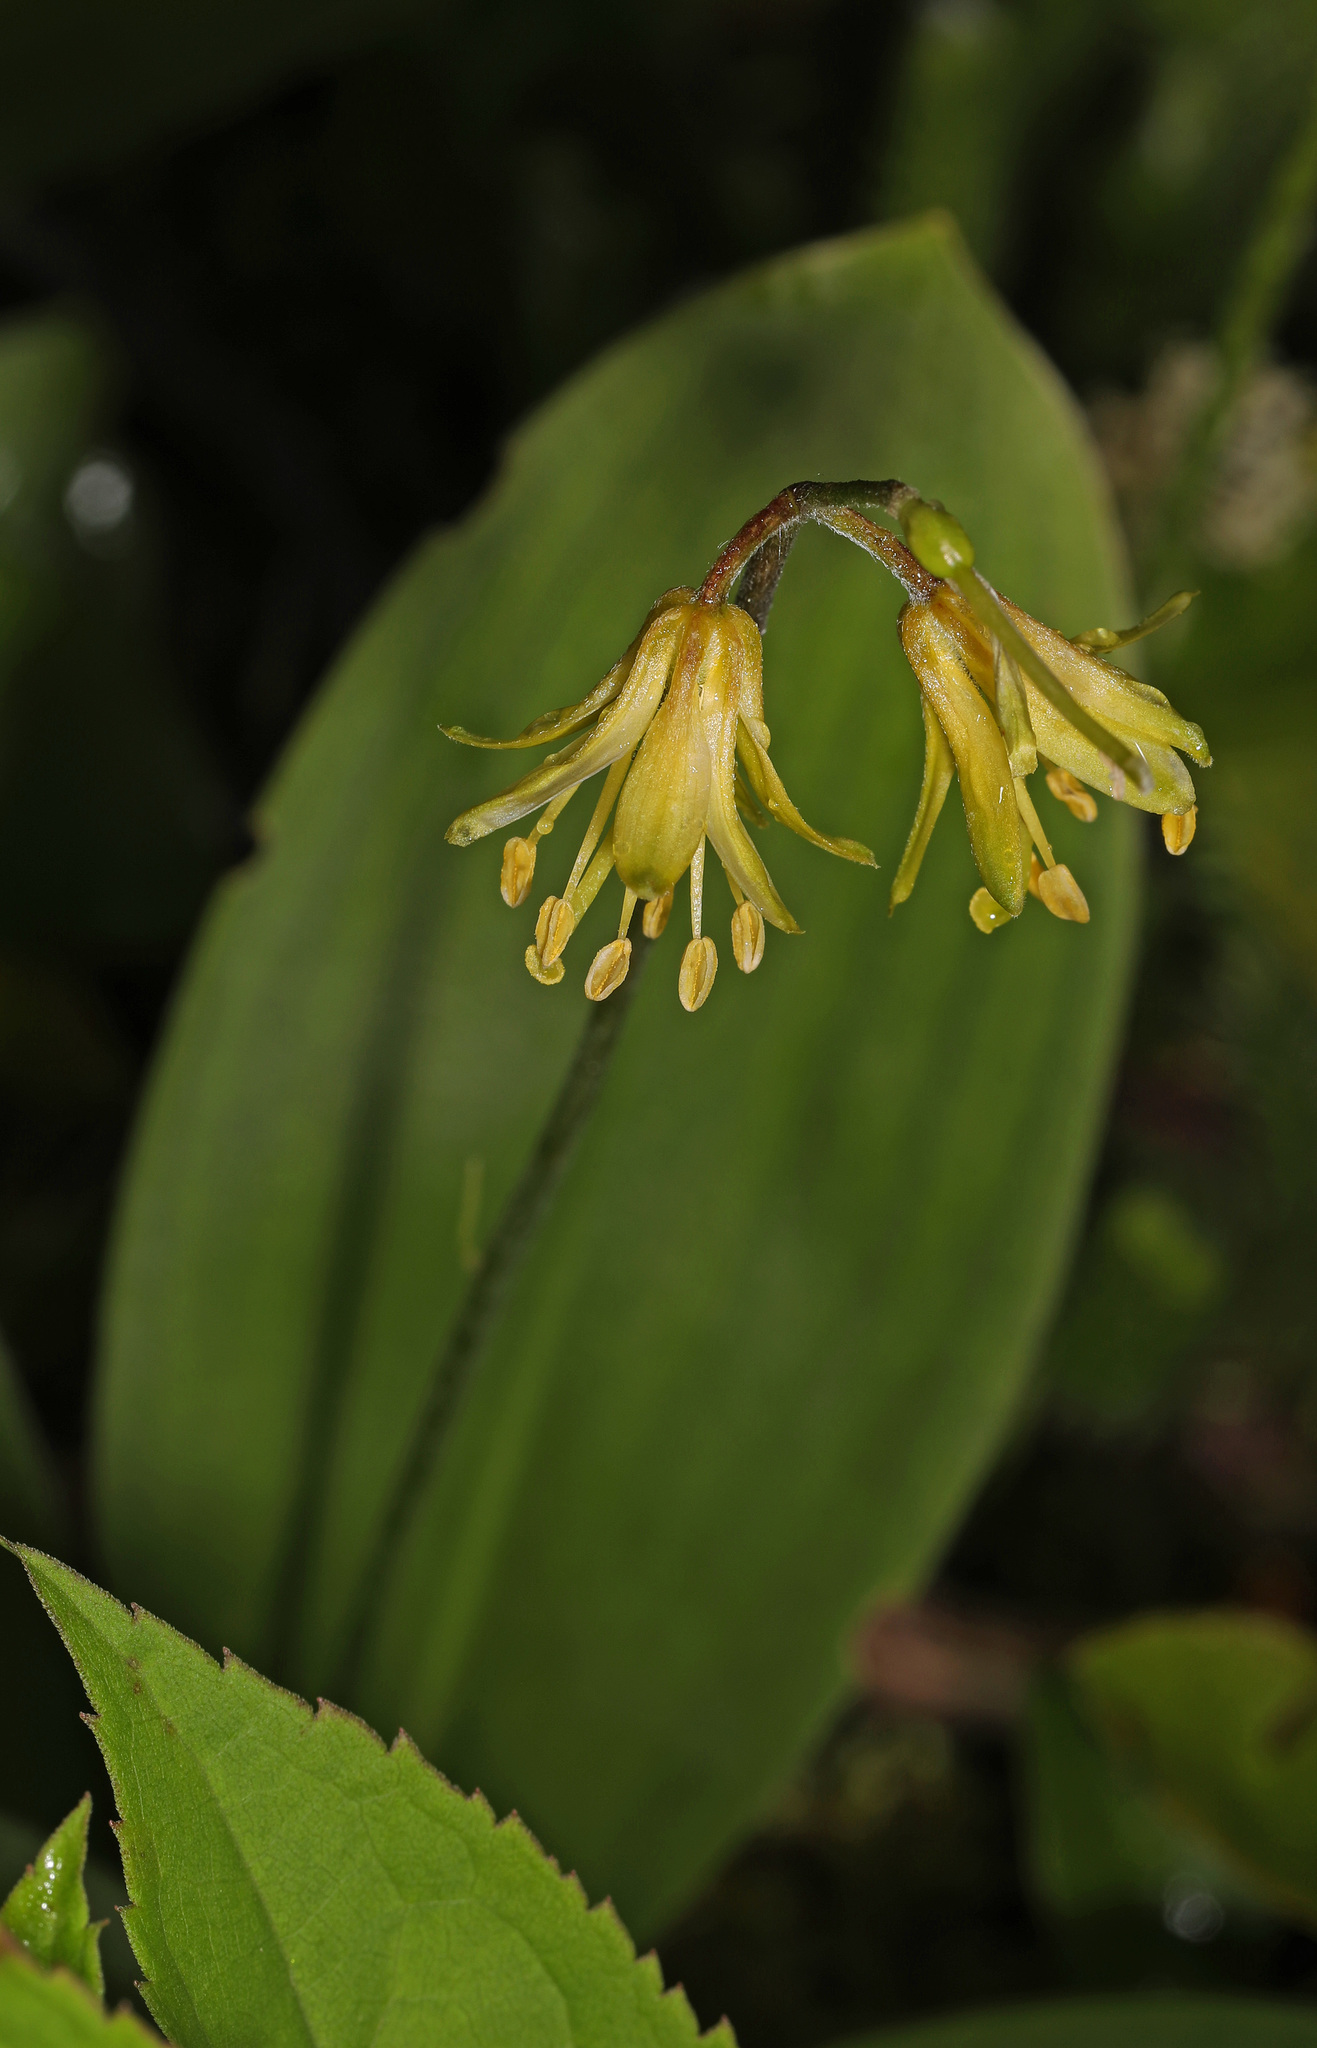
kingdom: Plantae
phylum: Tracheophyta
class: Liliopsida
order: Liliales
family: Liliaceae
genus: Clintonia
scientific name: Clintonia borealis
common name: Yellow clintonia
